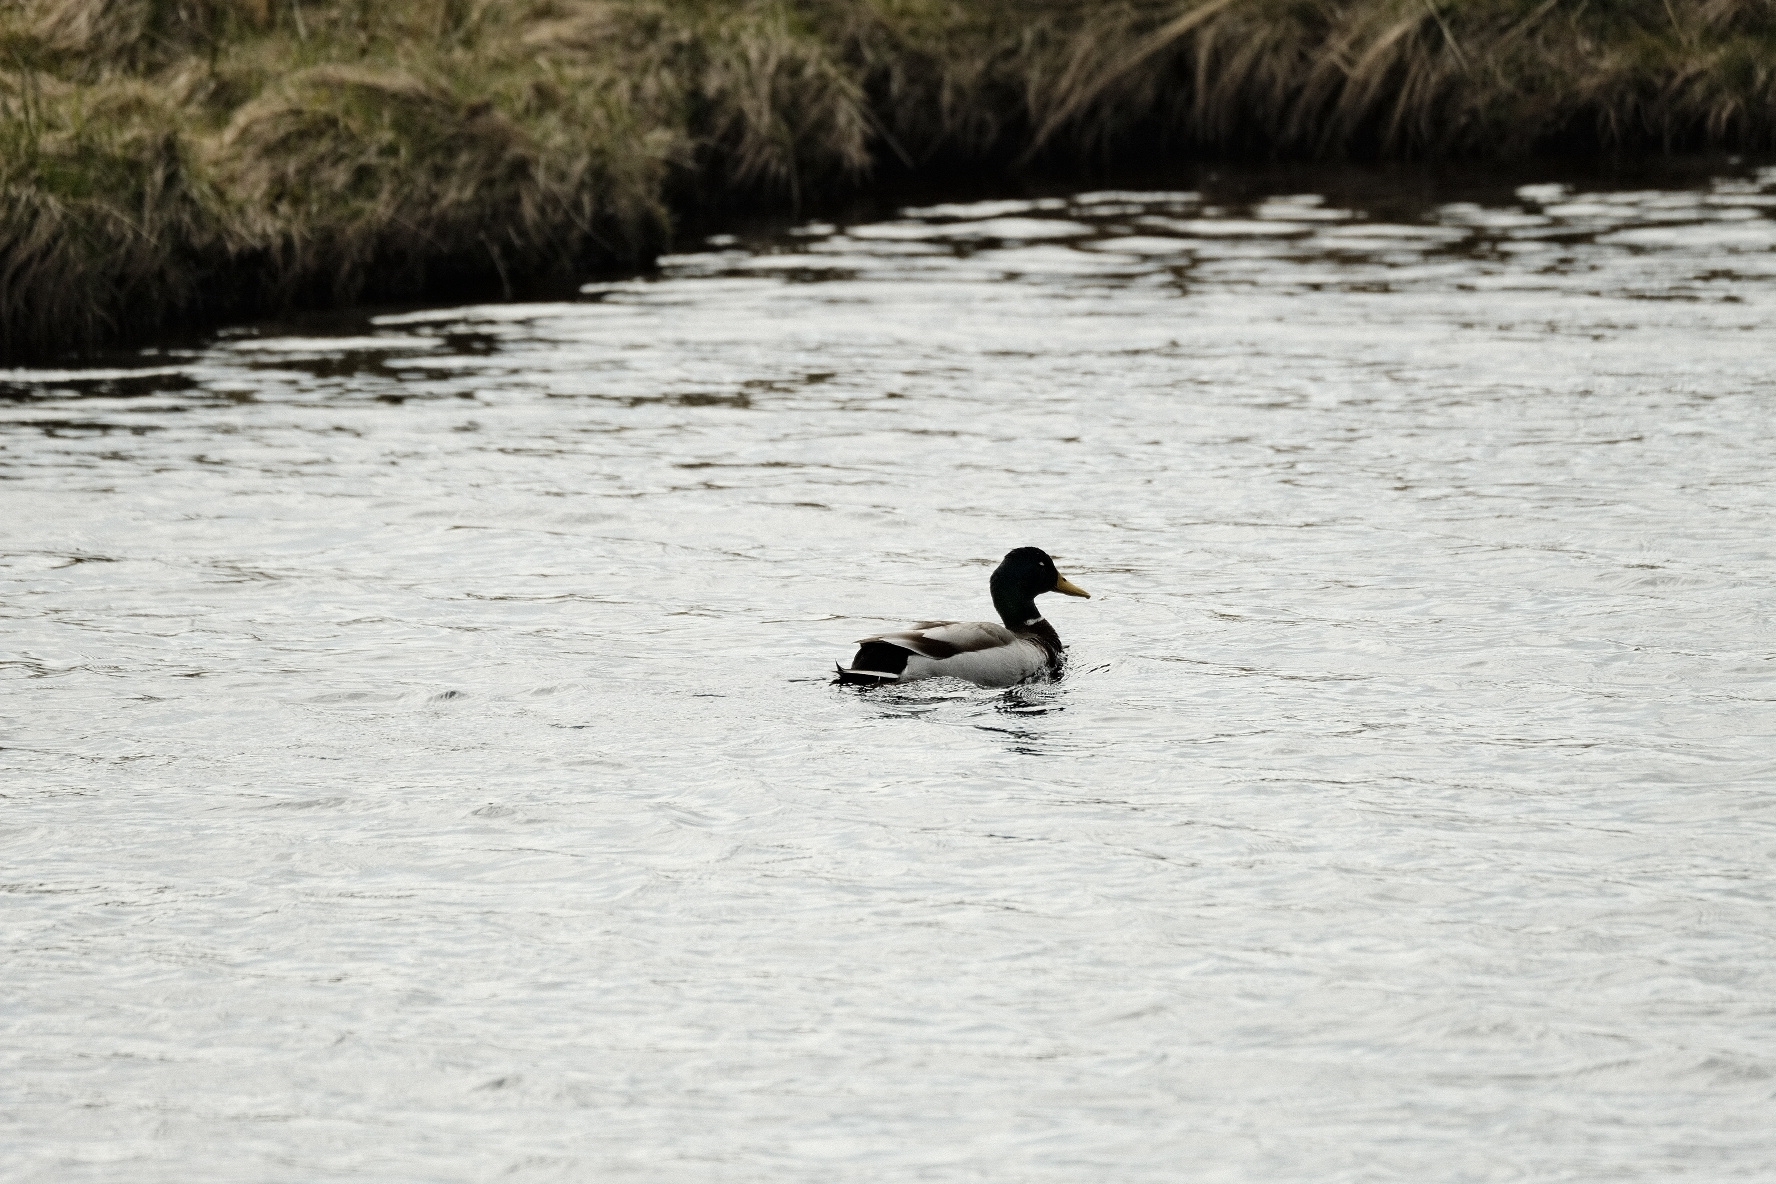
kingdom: Animalia
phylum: Chordata
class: Aves
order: Anseriformes
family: Anatidae
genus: Anas
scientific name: Anas platyrhynchos
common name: Mallard
